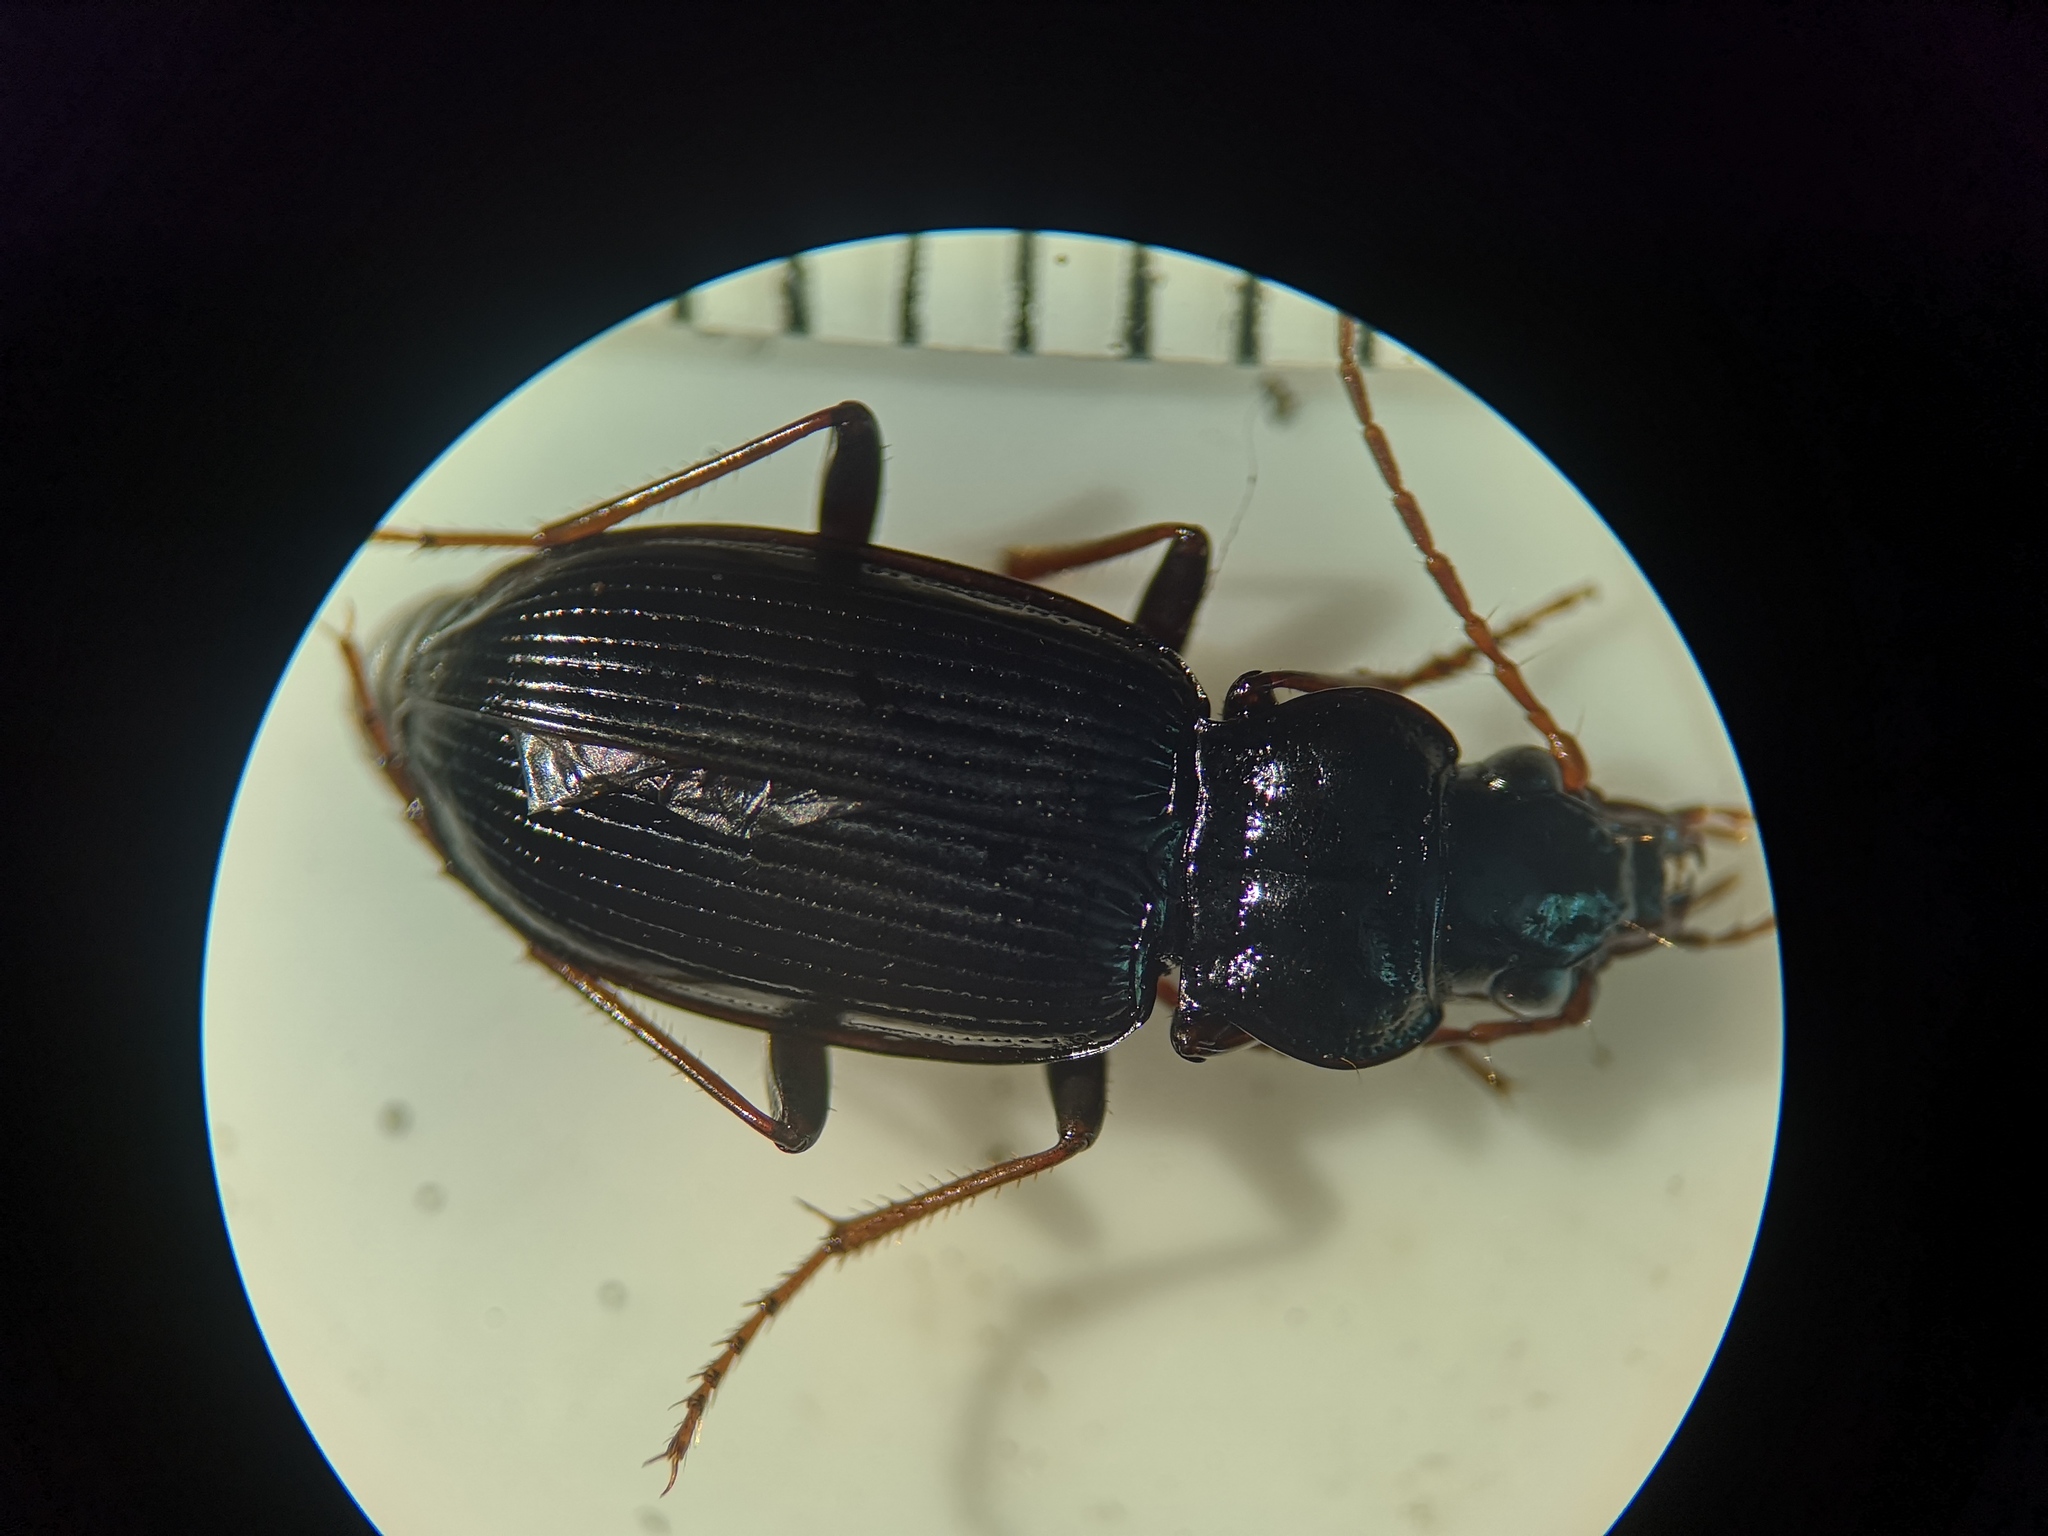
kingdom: Animalia
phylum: Arthropoda
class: Insecta
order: Coleoptera
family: Carabidae
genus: Nebria
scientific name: Nebria brevicollis
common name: Short-necked gazelle beetle
